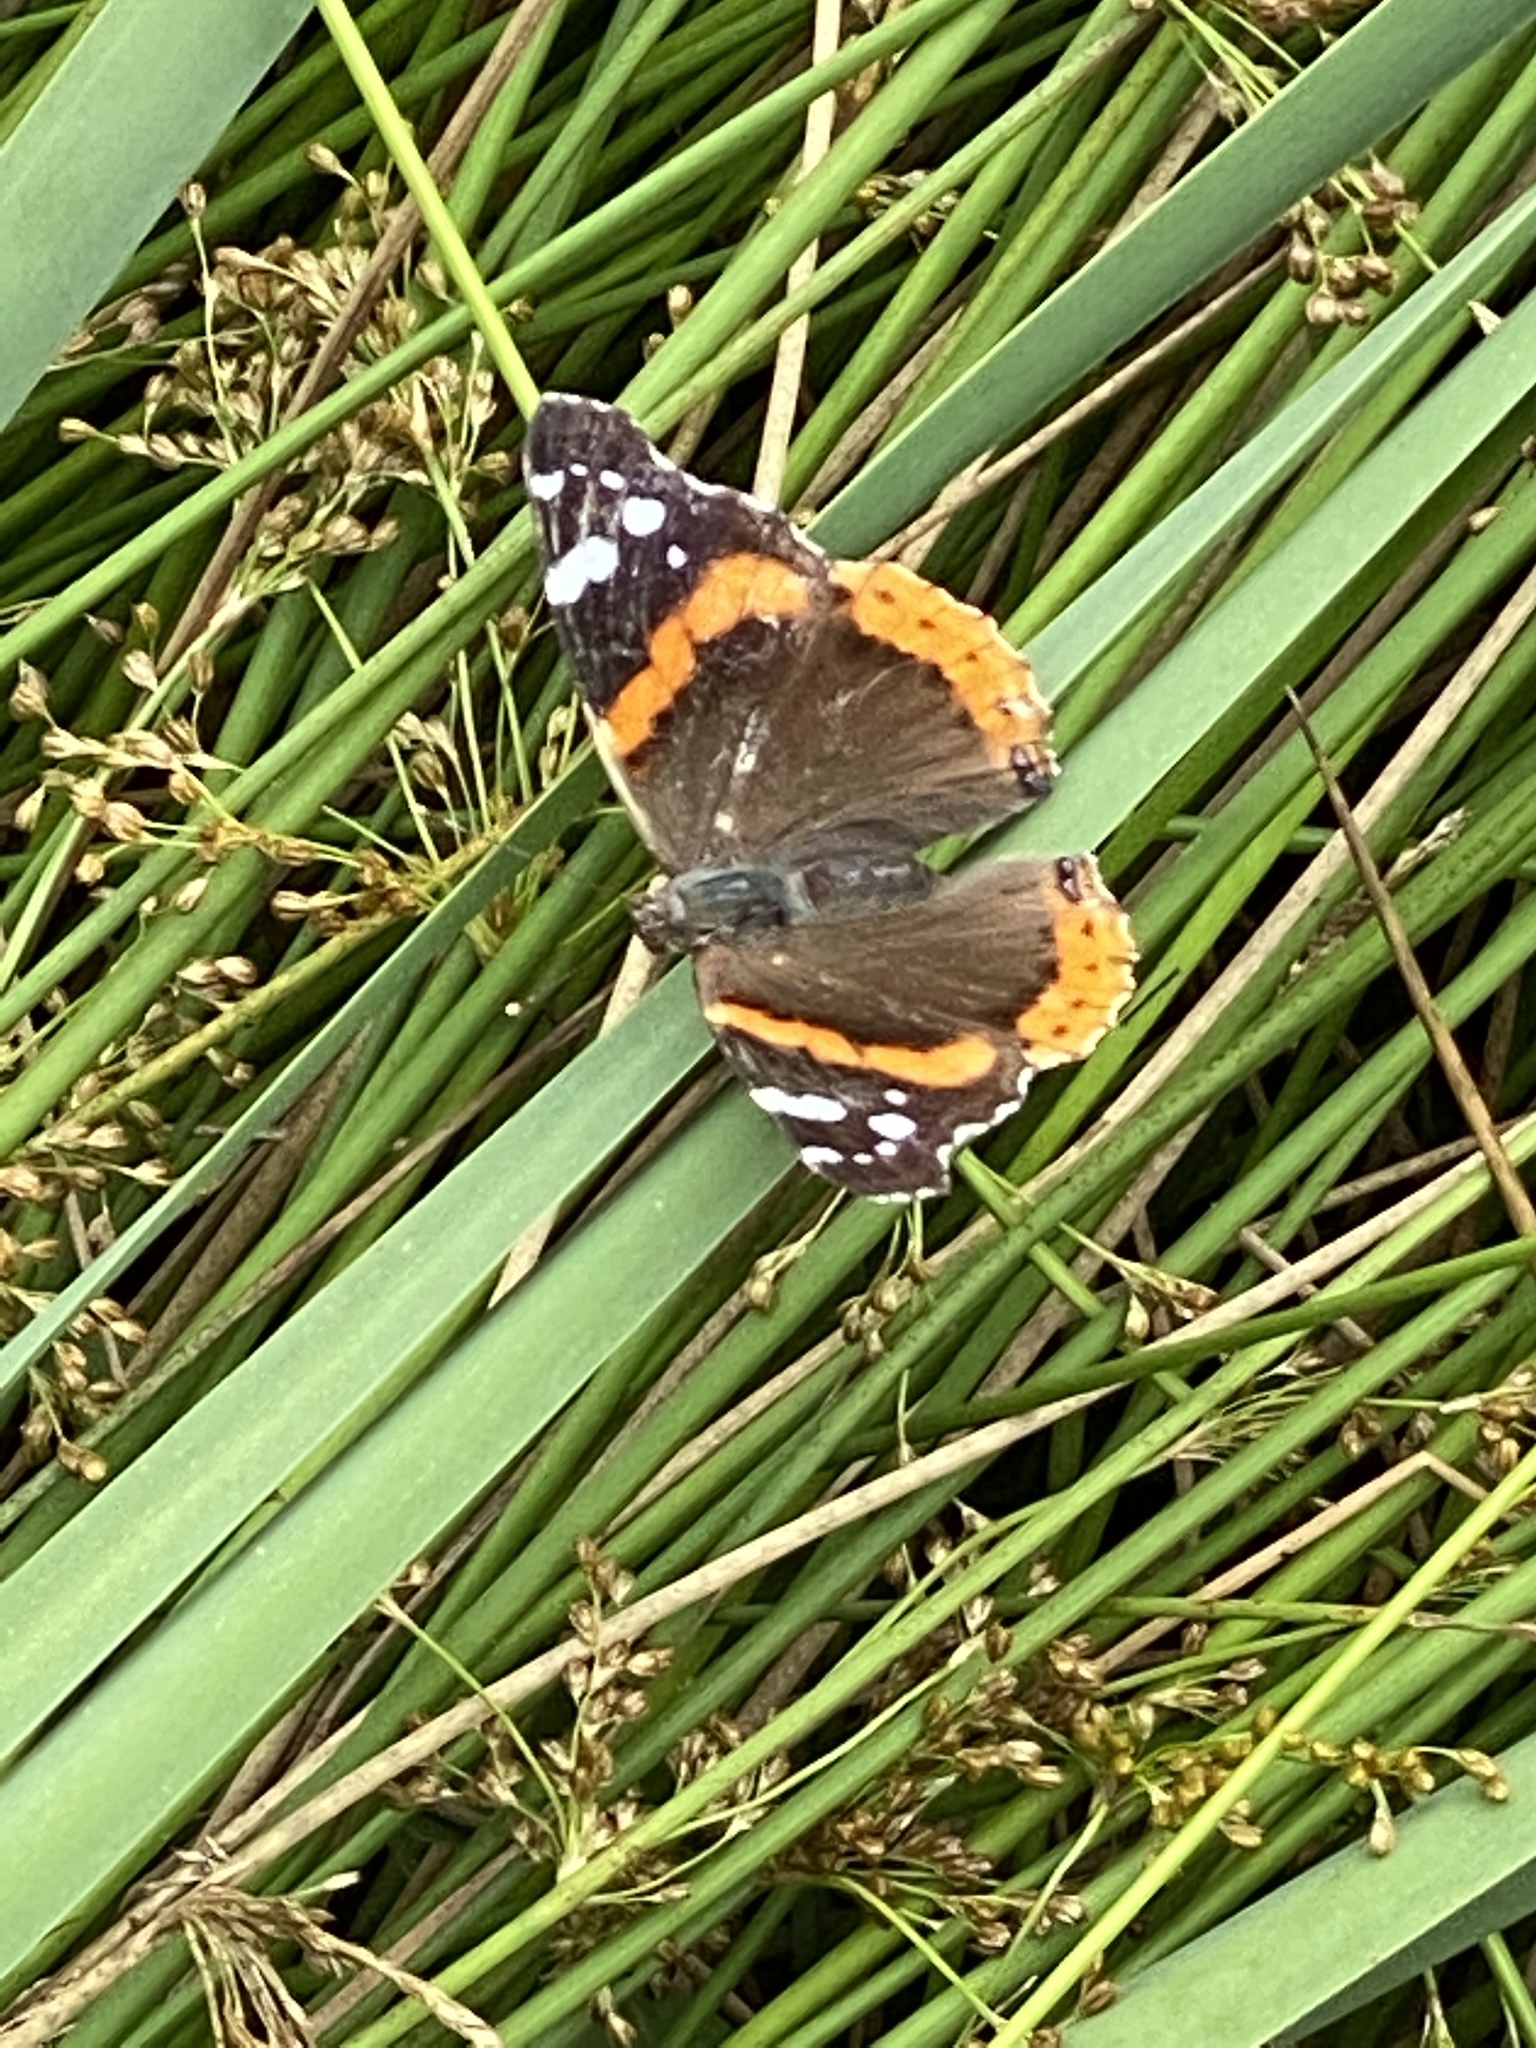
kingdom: Animalia
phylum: Arthropoda
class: Insecta
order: Lepidoptera
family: Nymphalidae
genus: Vanessa
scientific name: Vanessa atalanta
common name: Red admiral
